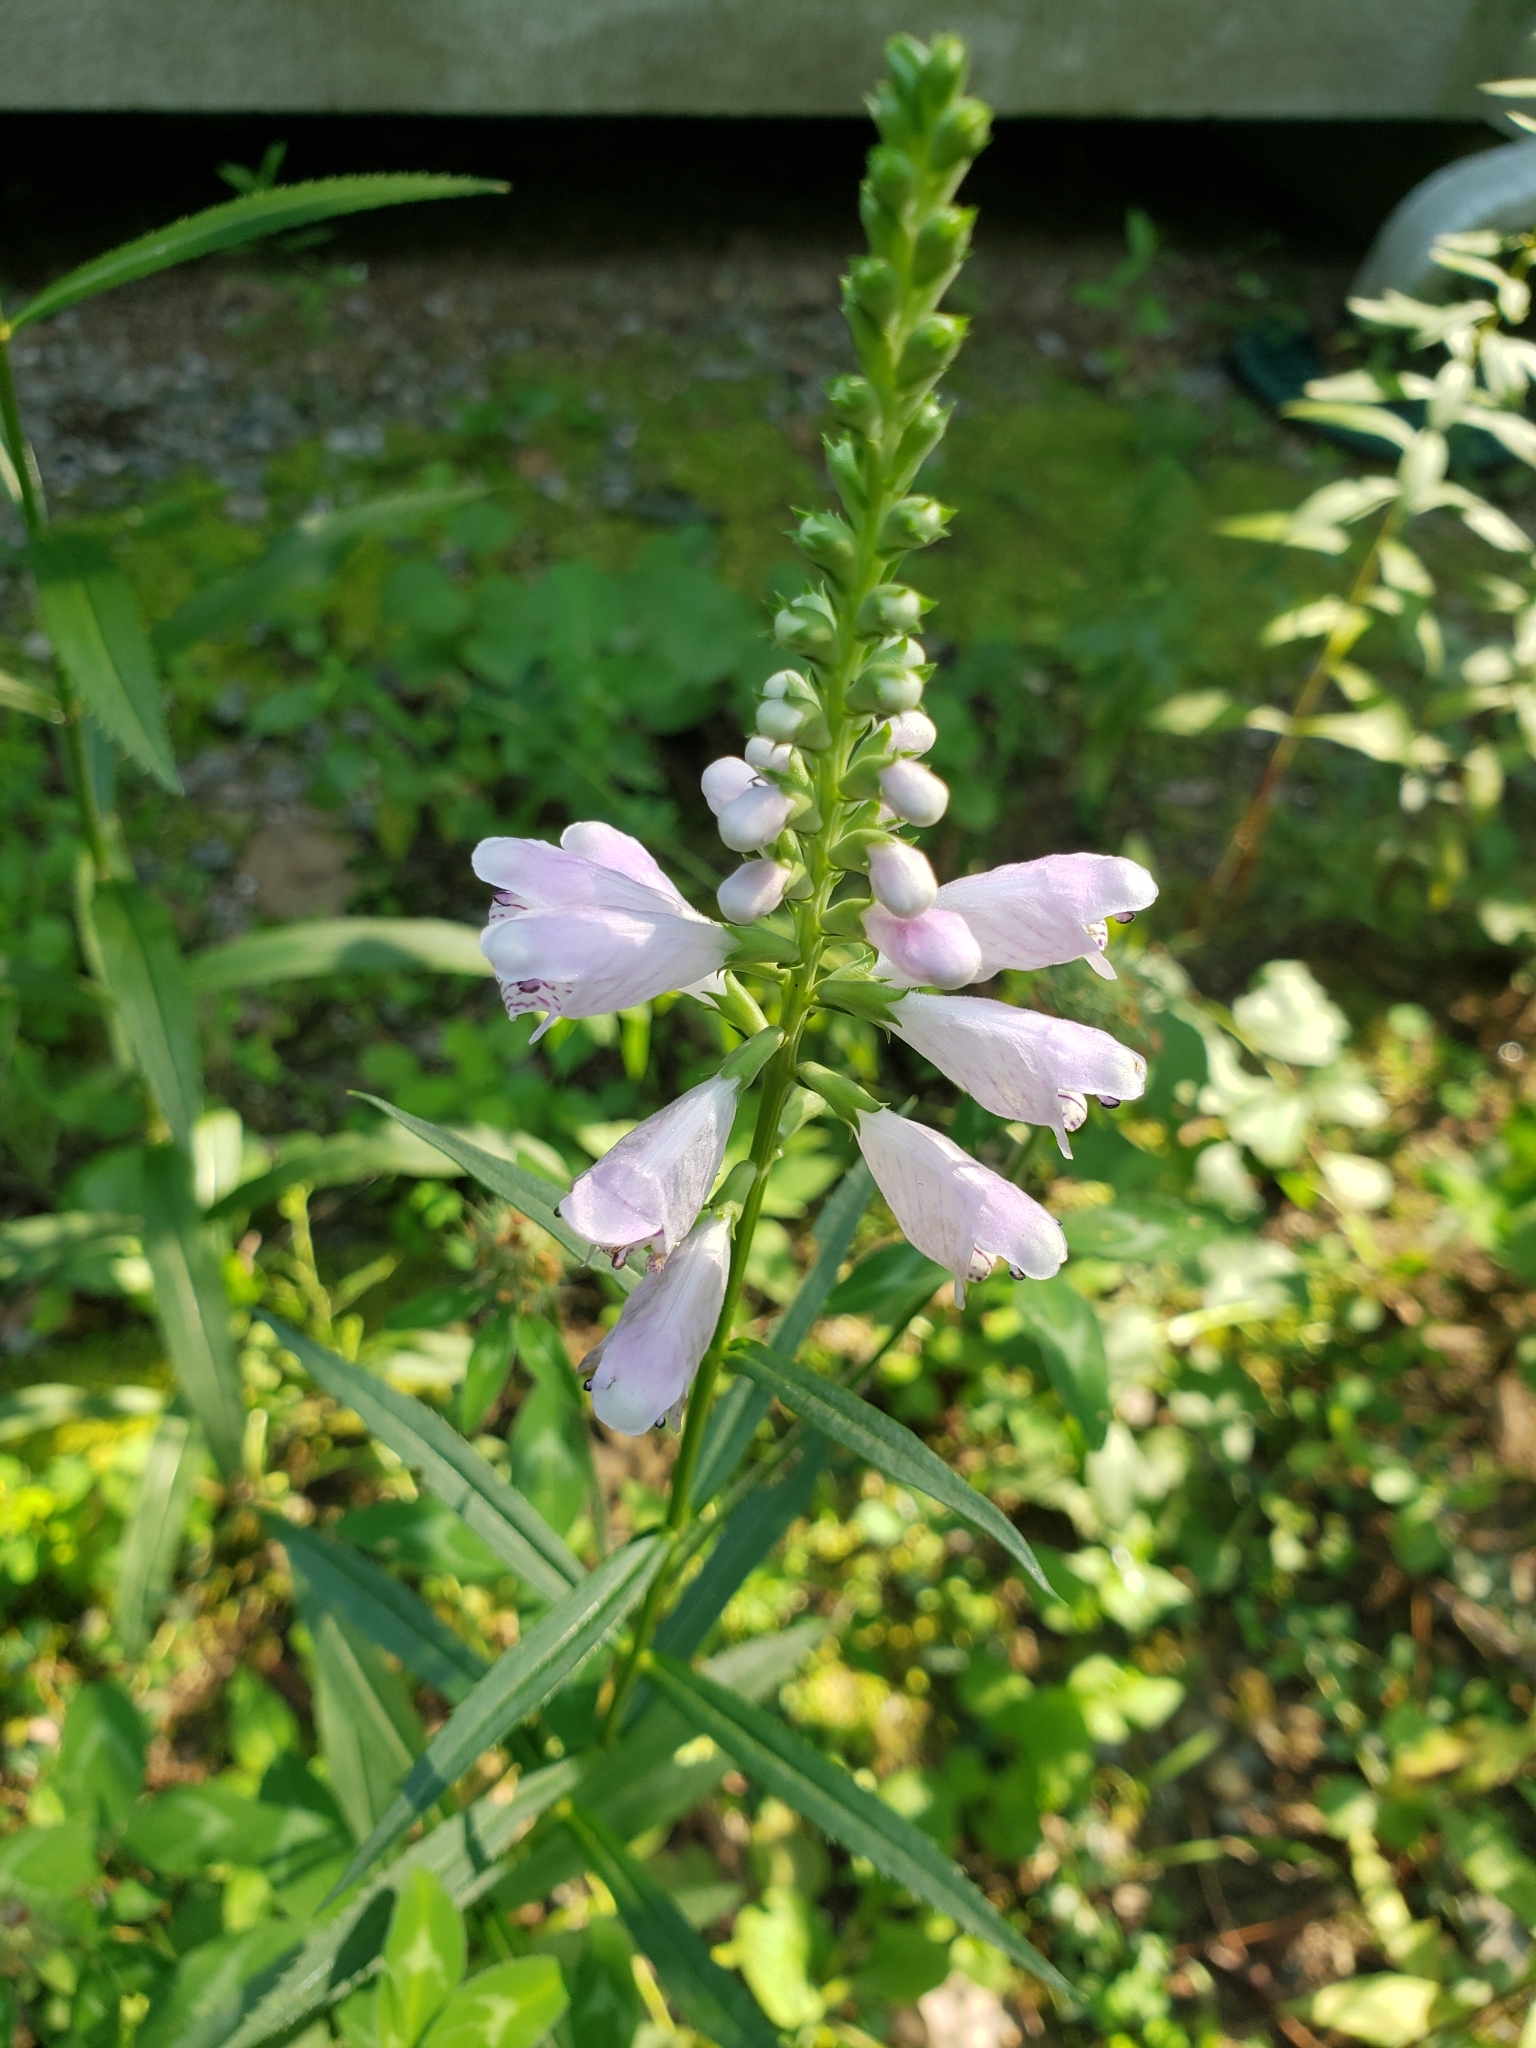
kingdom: Plantae
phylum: Tracheophyta
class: Magnoliopsida
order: Lamiales
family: Lamiaceae
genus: Physostegia
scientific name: Physostegia virginiana
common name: Obedient-plant
